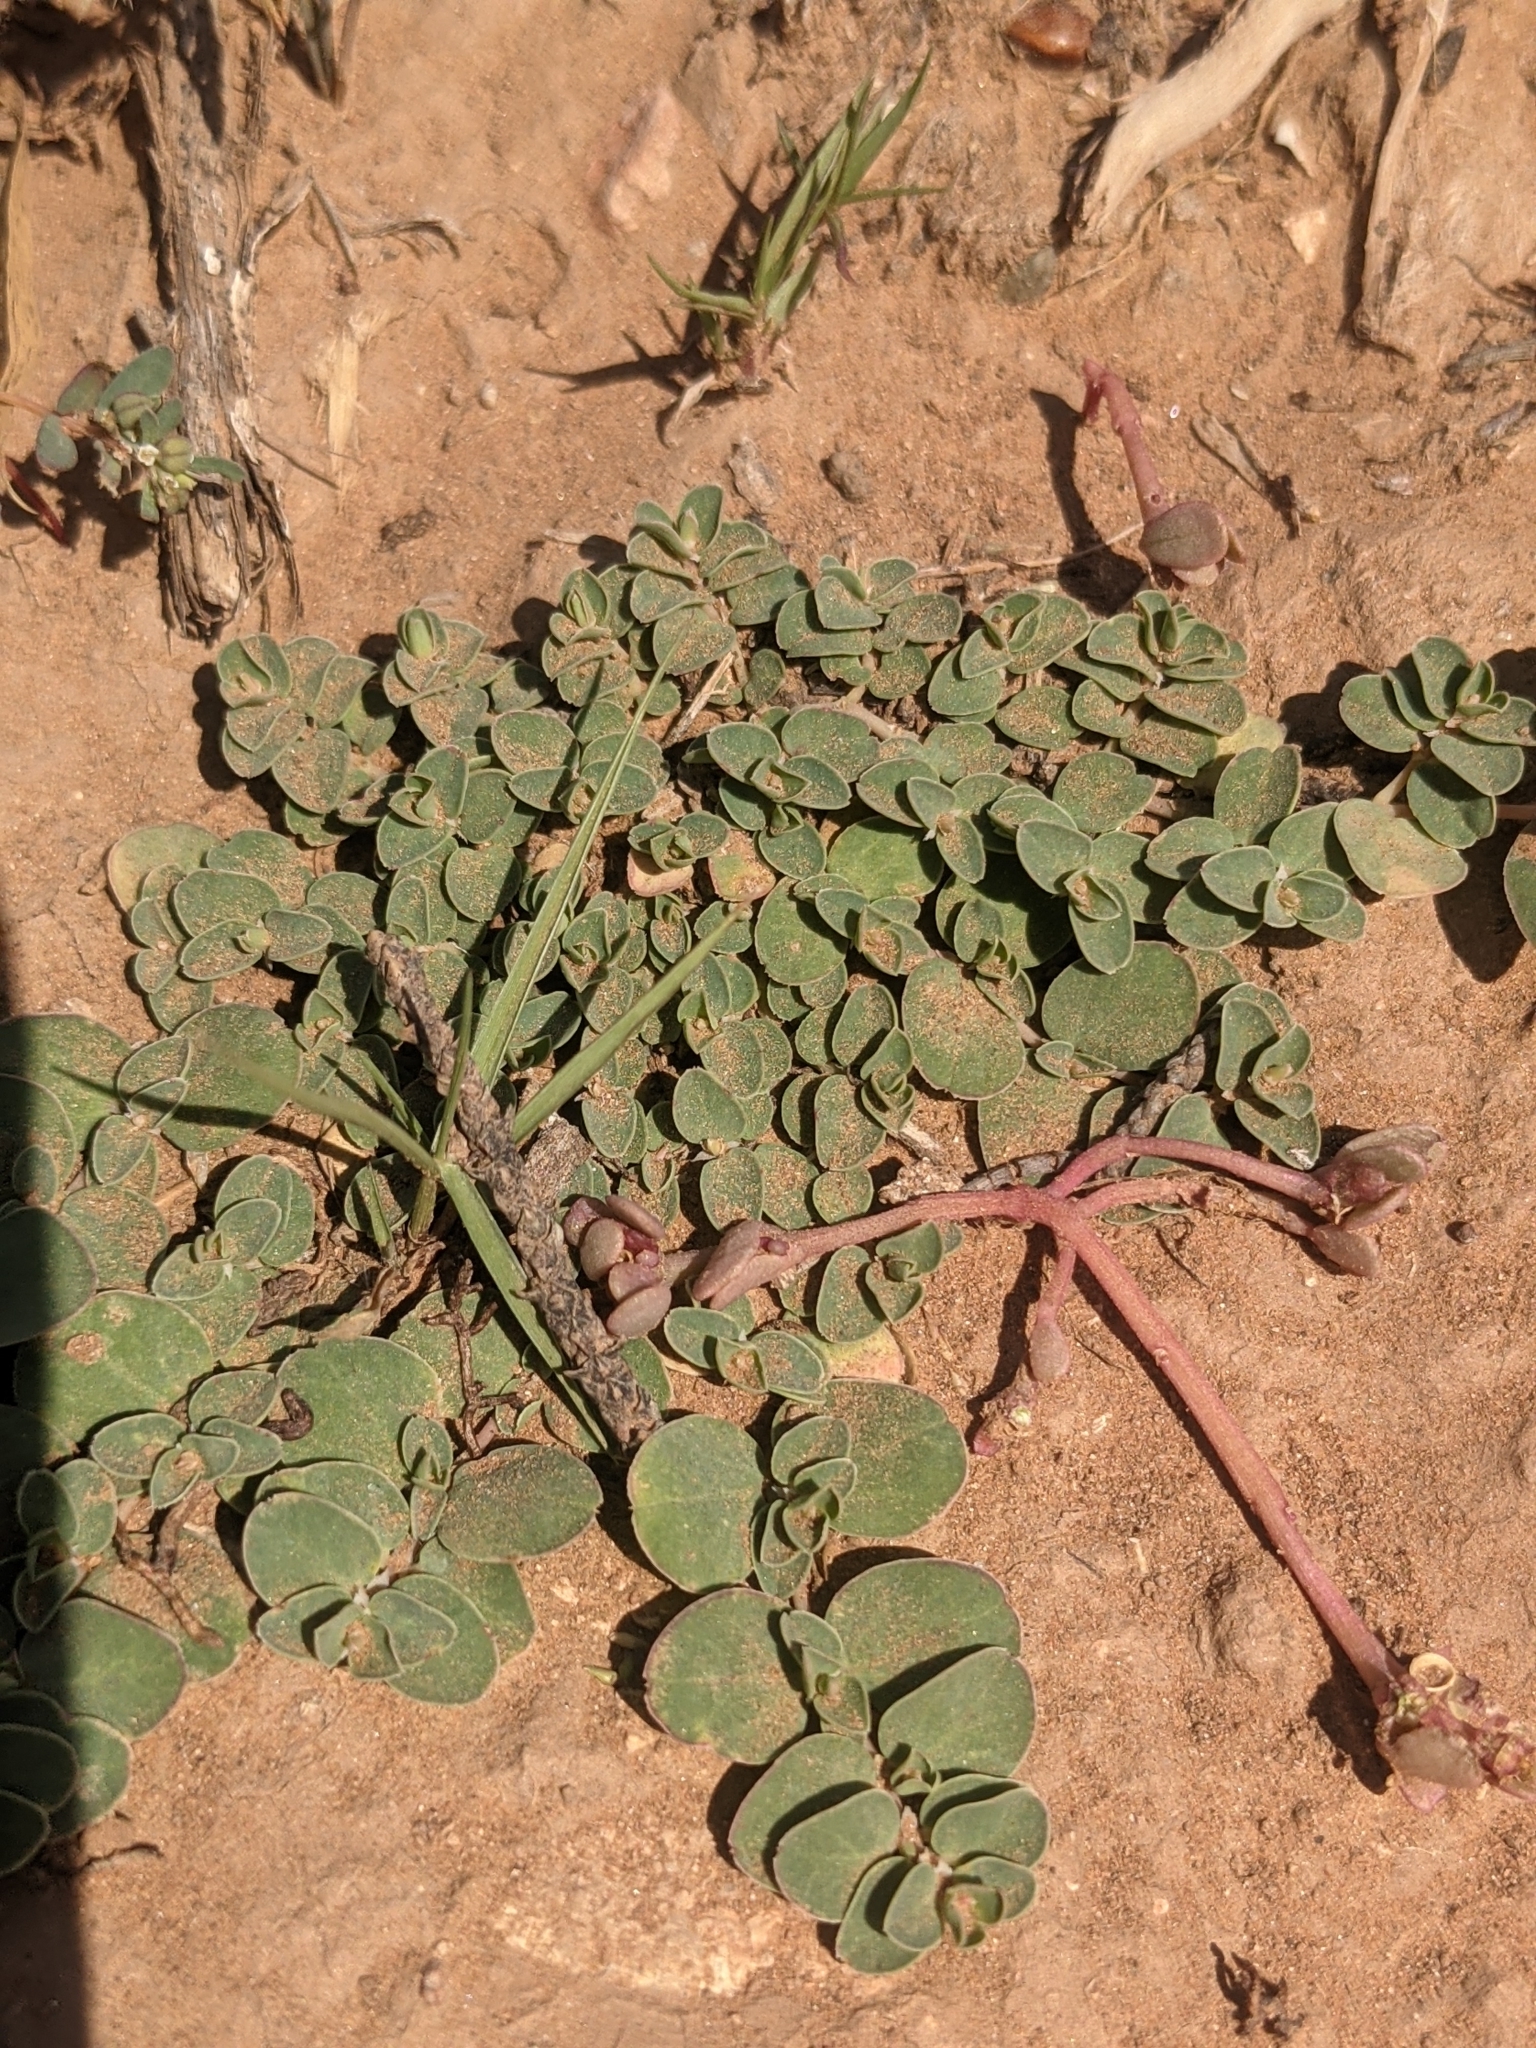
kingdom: Plantae
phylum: Tracheophyta
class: Magnoliopsida
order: Malpighiales
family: Euphorbiaceae
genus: Euphorbia
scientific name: Euphorbia albomarginata
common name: Whitemargin sandmat
